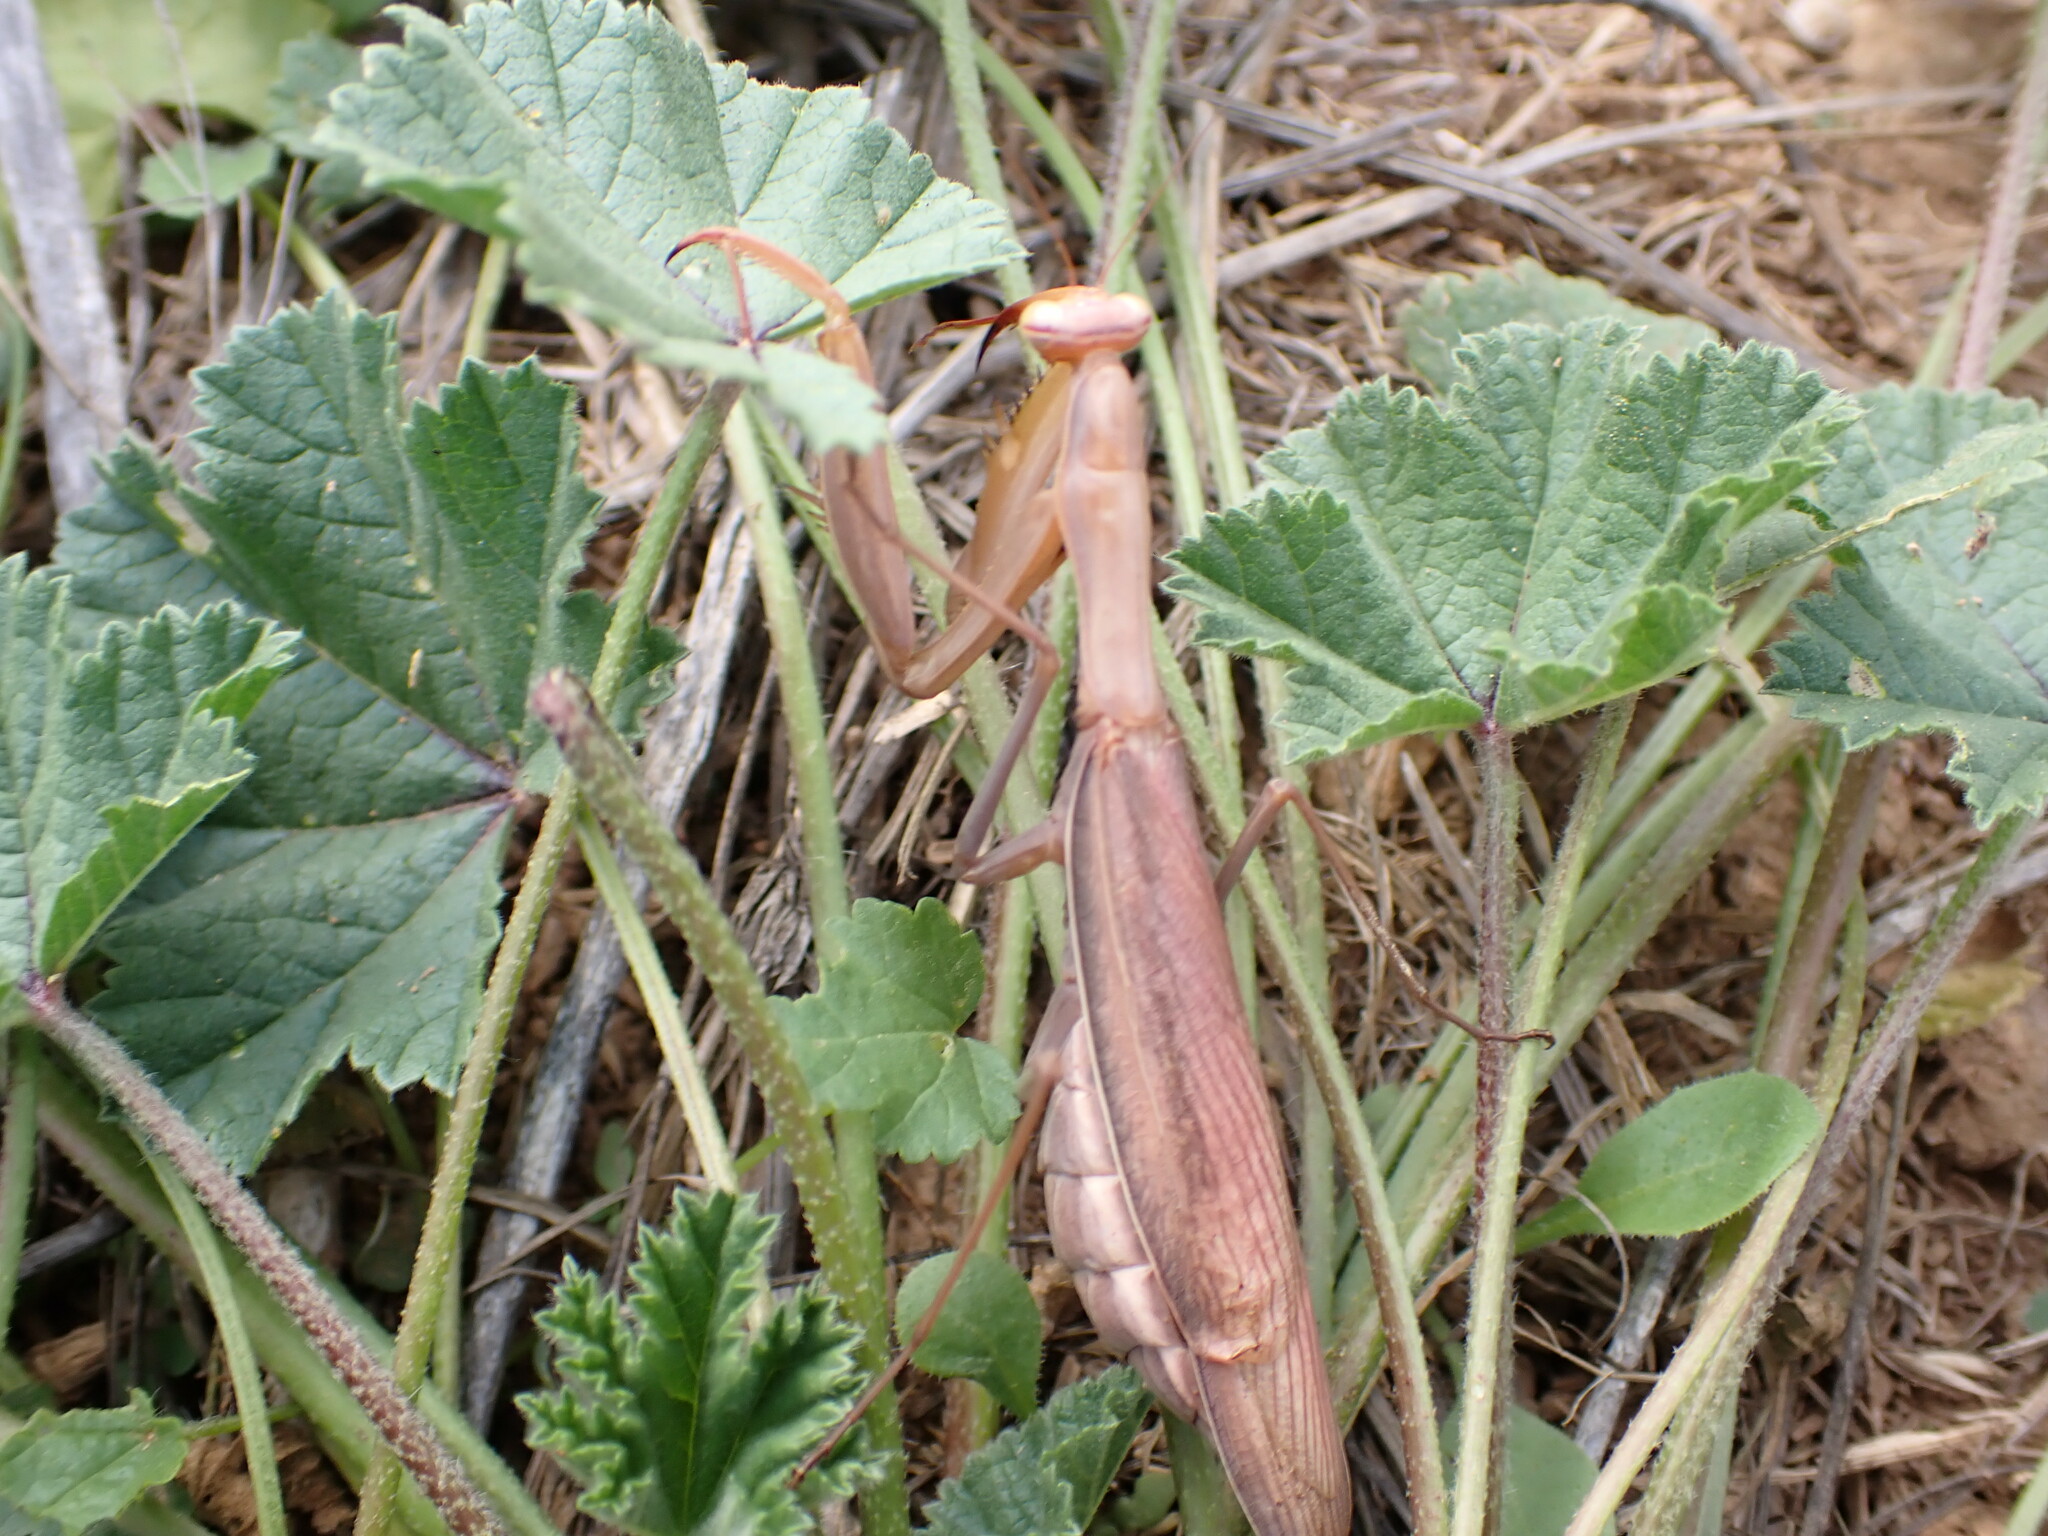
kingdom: Animalia
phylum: Arthropoda
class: Insecta
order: Mantodea
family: Mantidae
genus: Mantis
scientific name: Mantis religiosa
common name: Praying mantis
